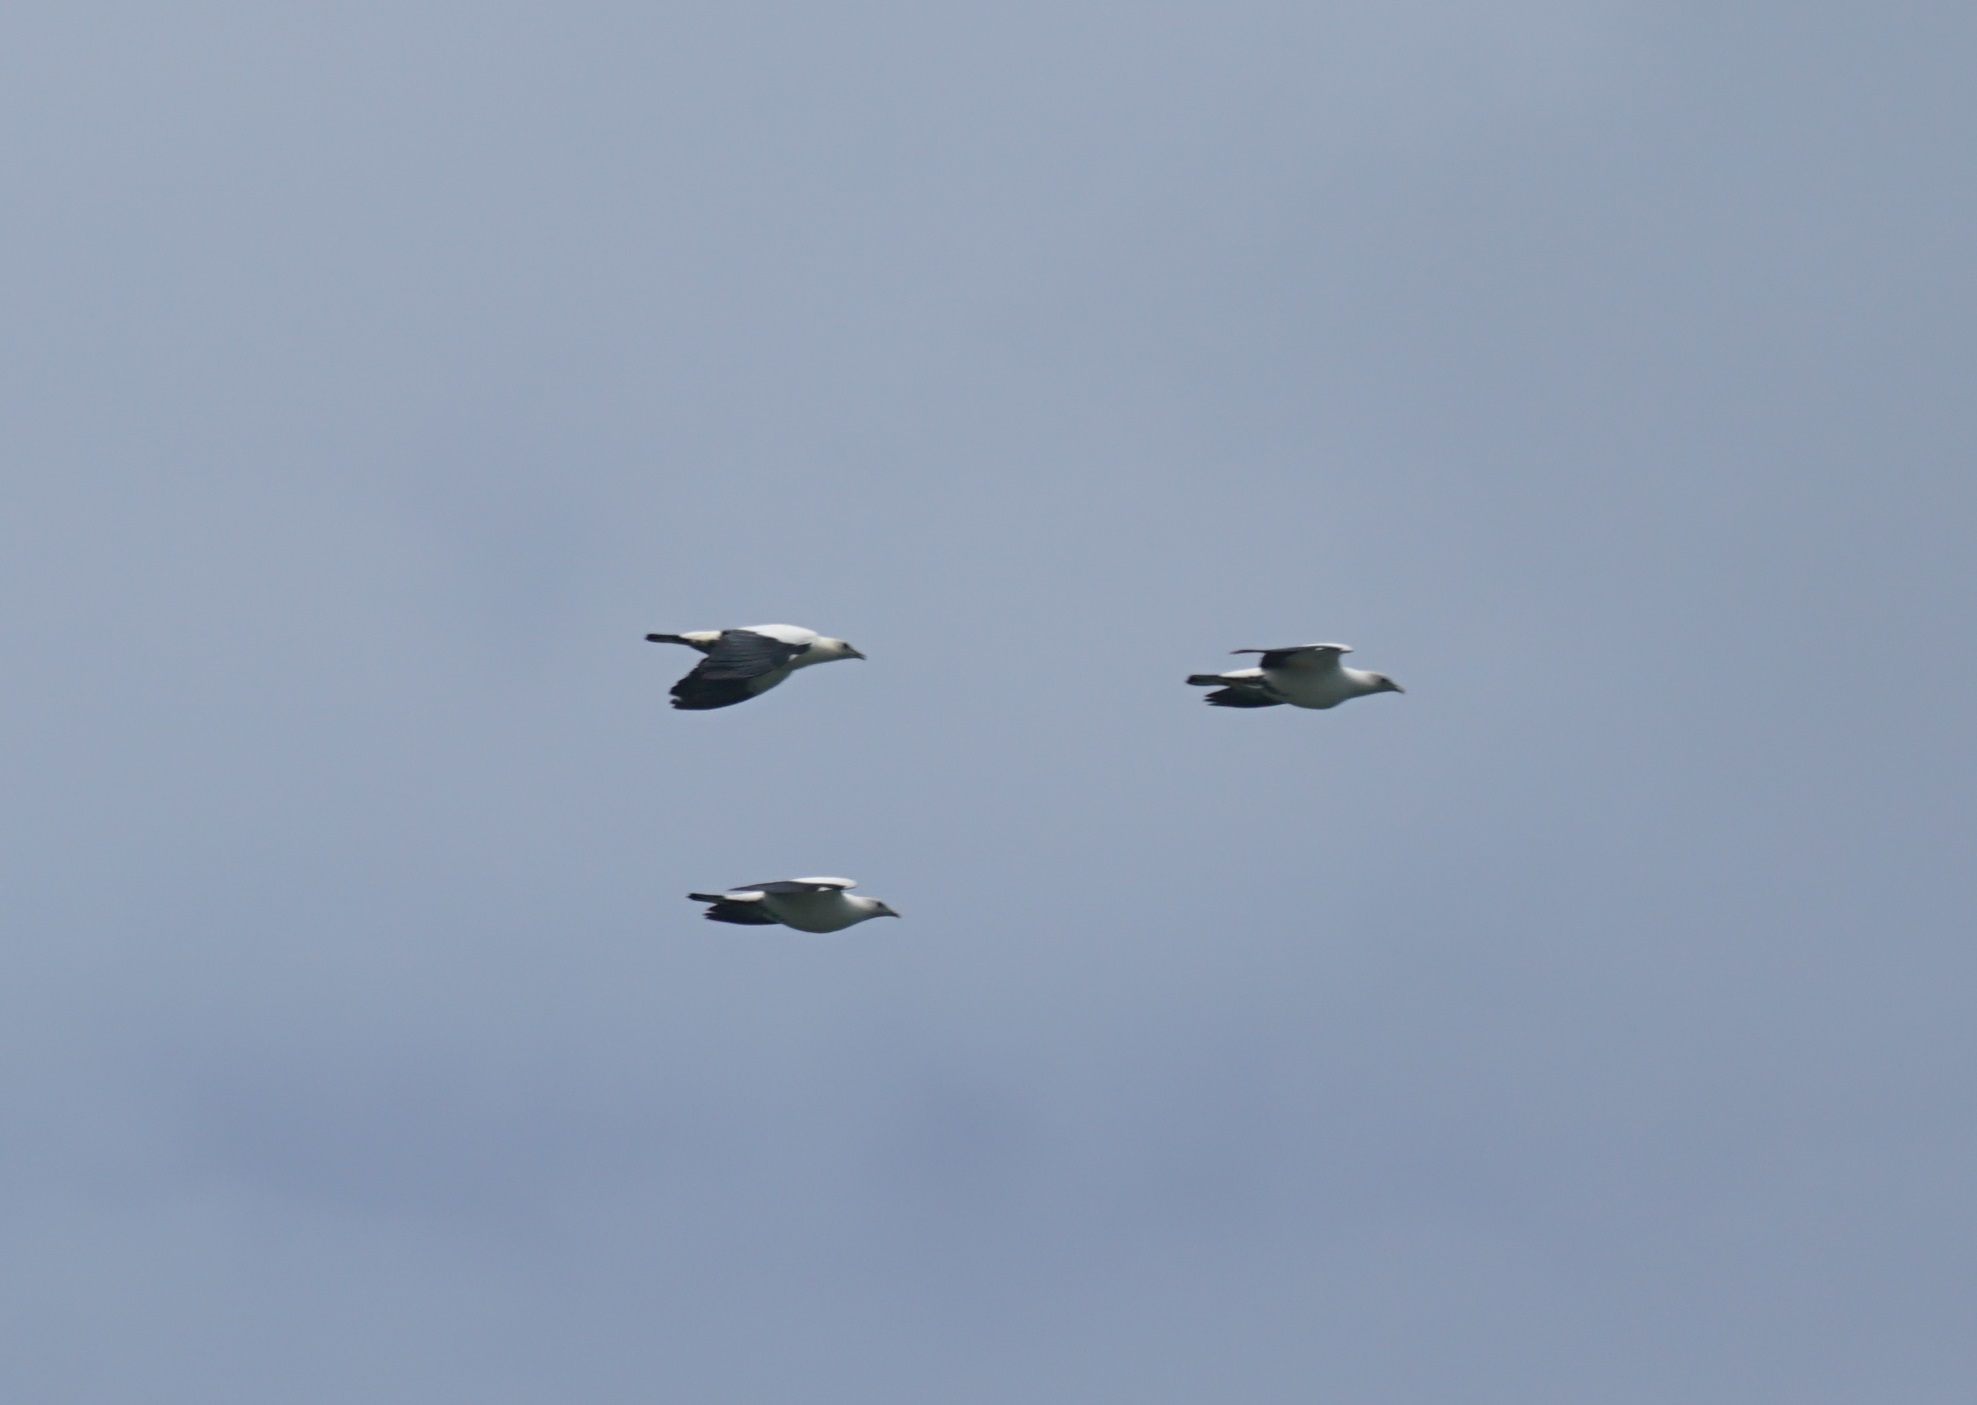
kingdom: Animalia
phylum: Chordata
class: Aves
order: Columbiformes
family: Columbidae
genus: Ducula
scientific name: Ducula spilorrhoa
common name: Torresian imperial pigeon
